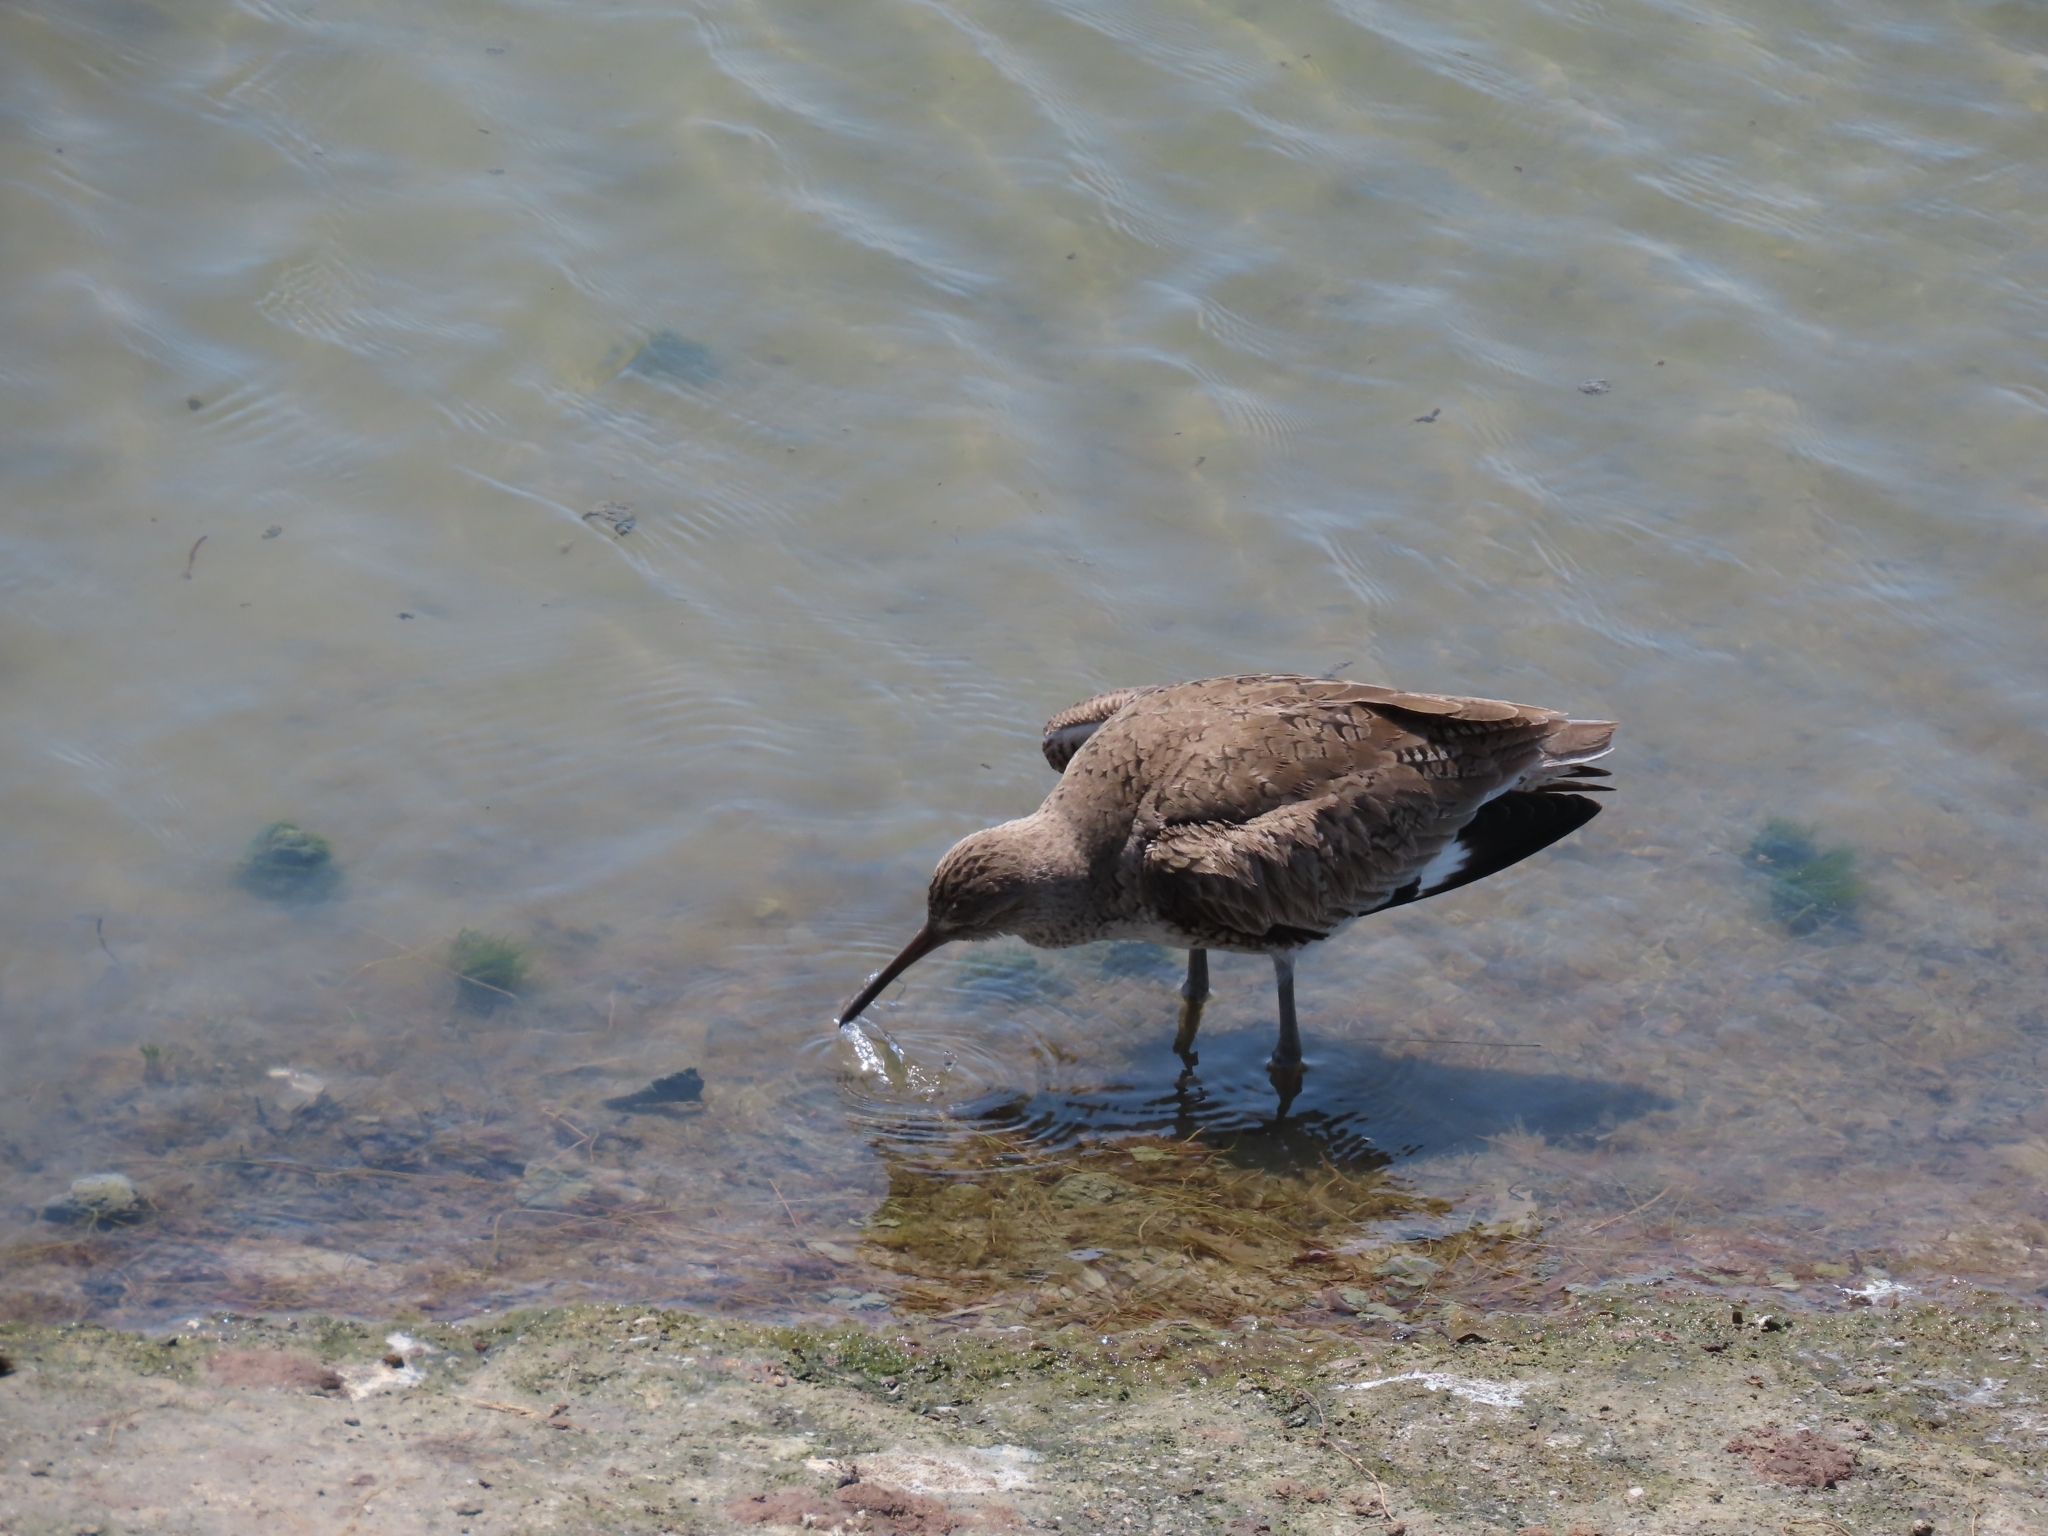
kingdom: Animalia
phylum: Chordata
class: Aves
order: Charadriiformes
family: Scolopacidae
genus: Tringa
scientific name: Tringa semipalmata
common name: Willet
